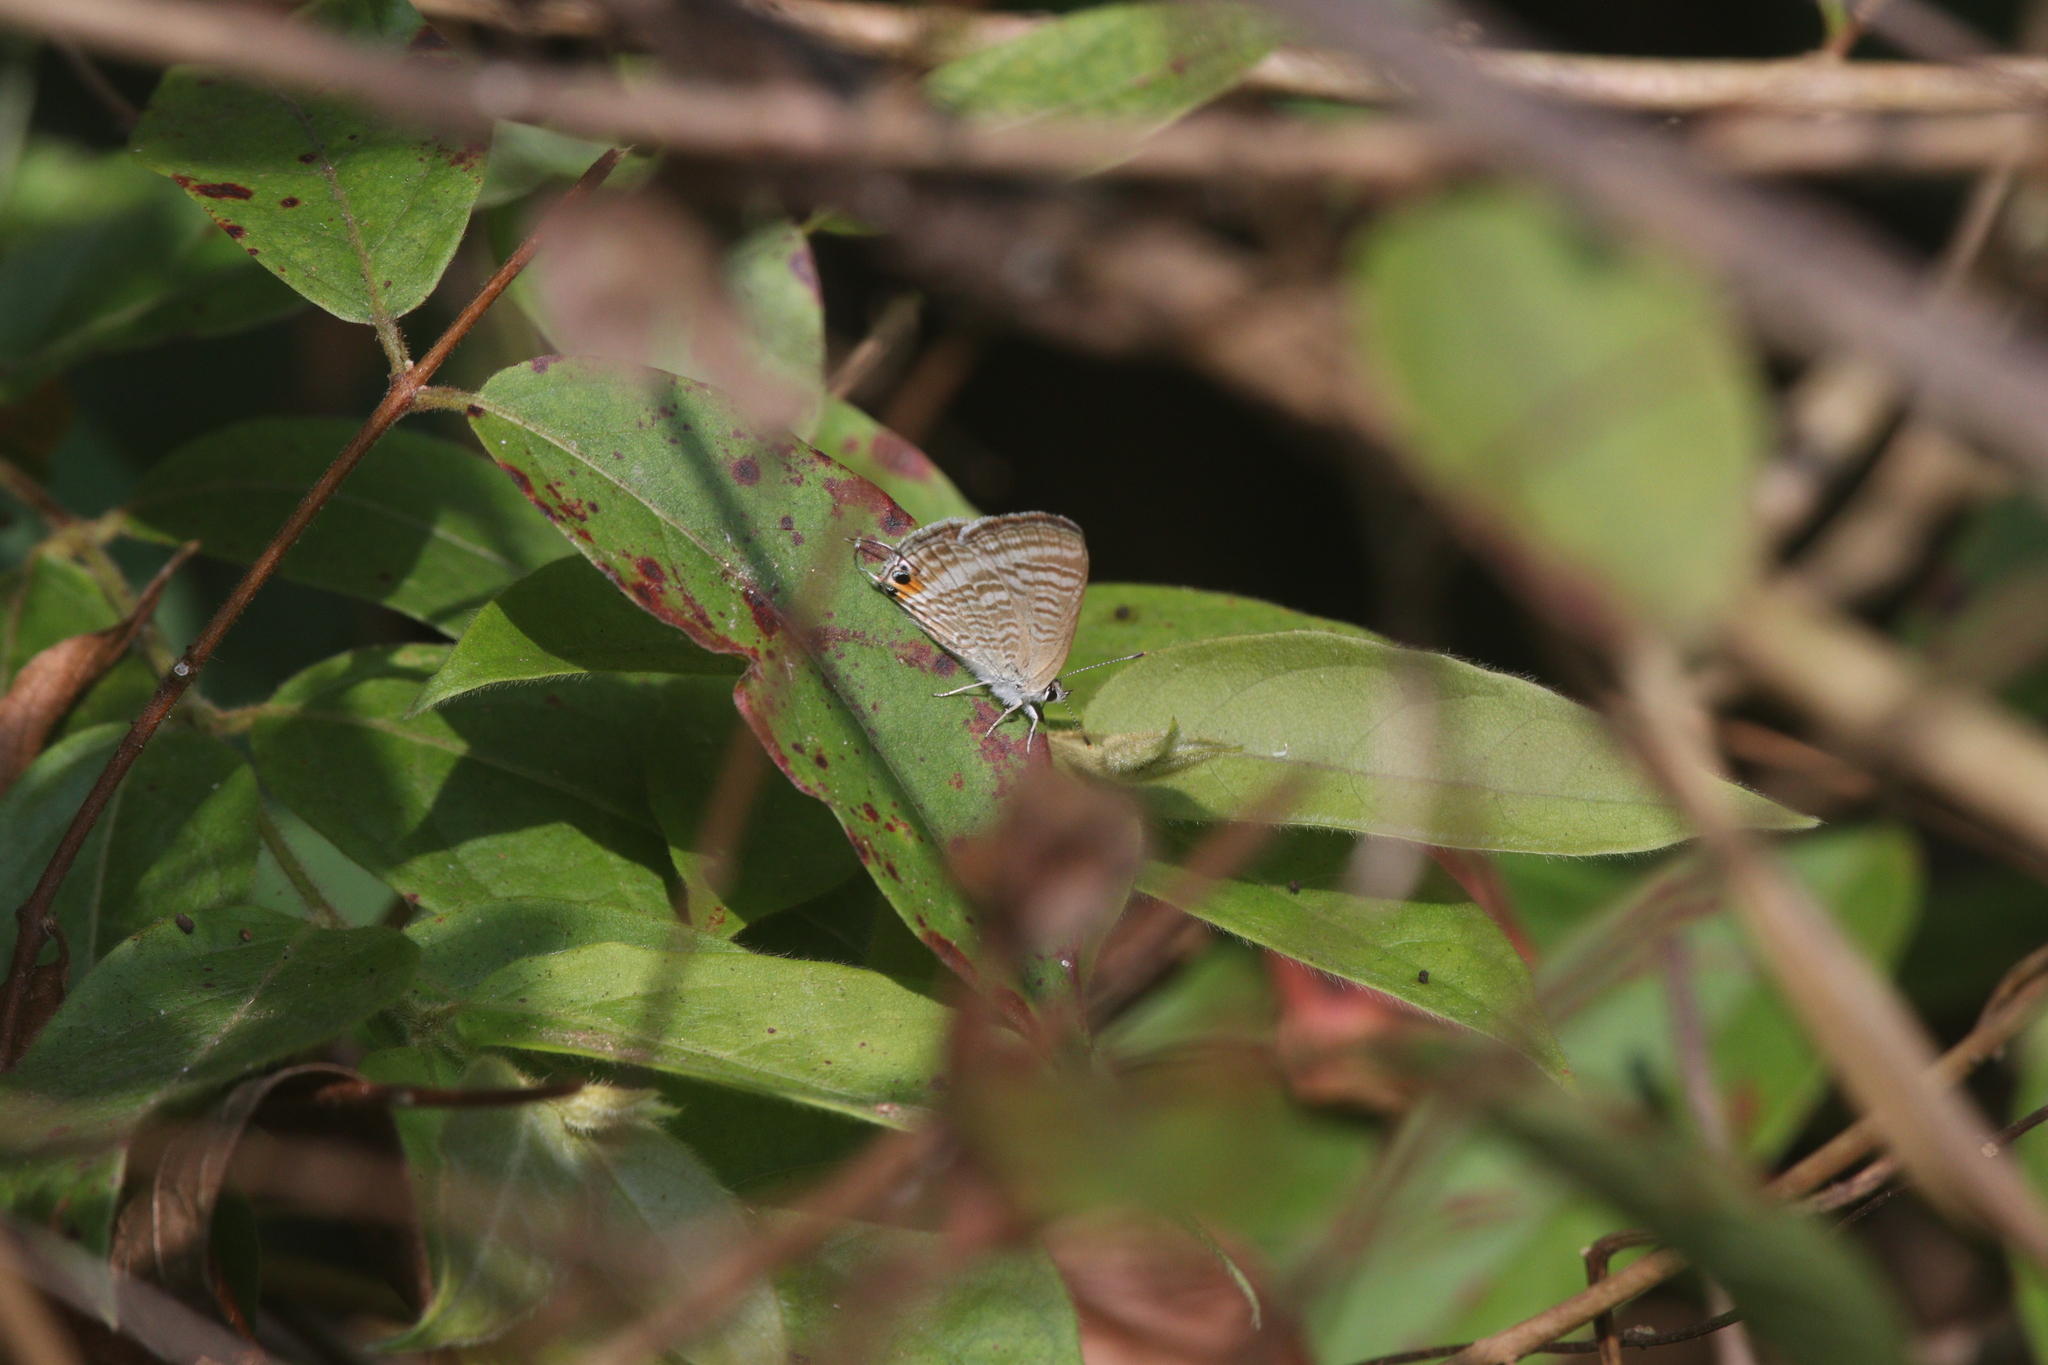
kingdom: Animalia
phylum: Arthropoda
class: Insecta
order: Lepidoptera
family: Lycaenidae
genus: Lampides
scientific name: Lampides boeticus
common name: Long-tailed blue
